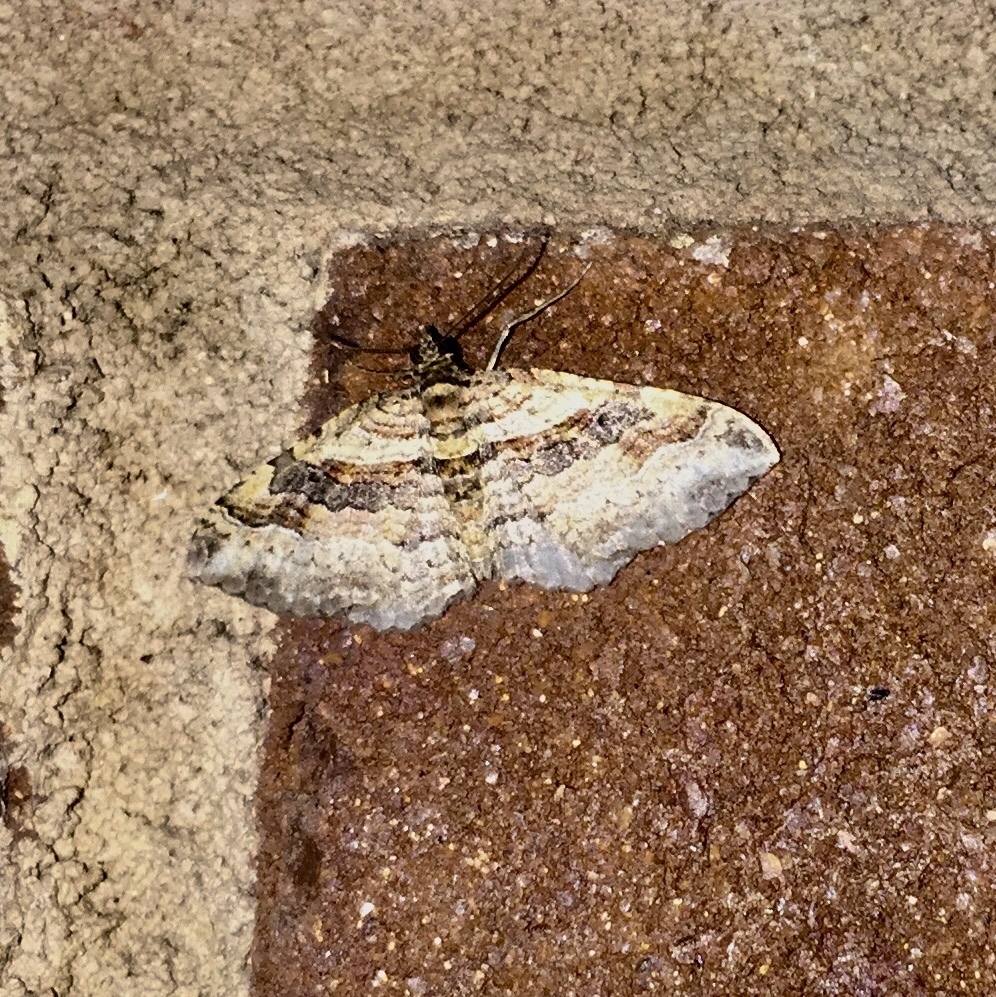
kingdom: Animalia
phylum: Arthropoda
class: Insecta
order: Lepidoptera
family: Geometridae
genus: Costaconvexa
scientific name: Costaconvexa centrostrigaria
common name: Bent-line carpet
